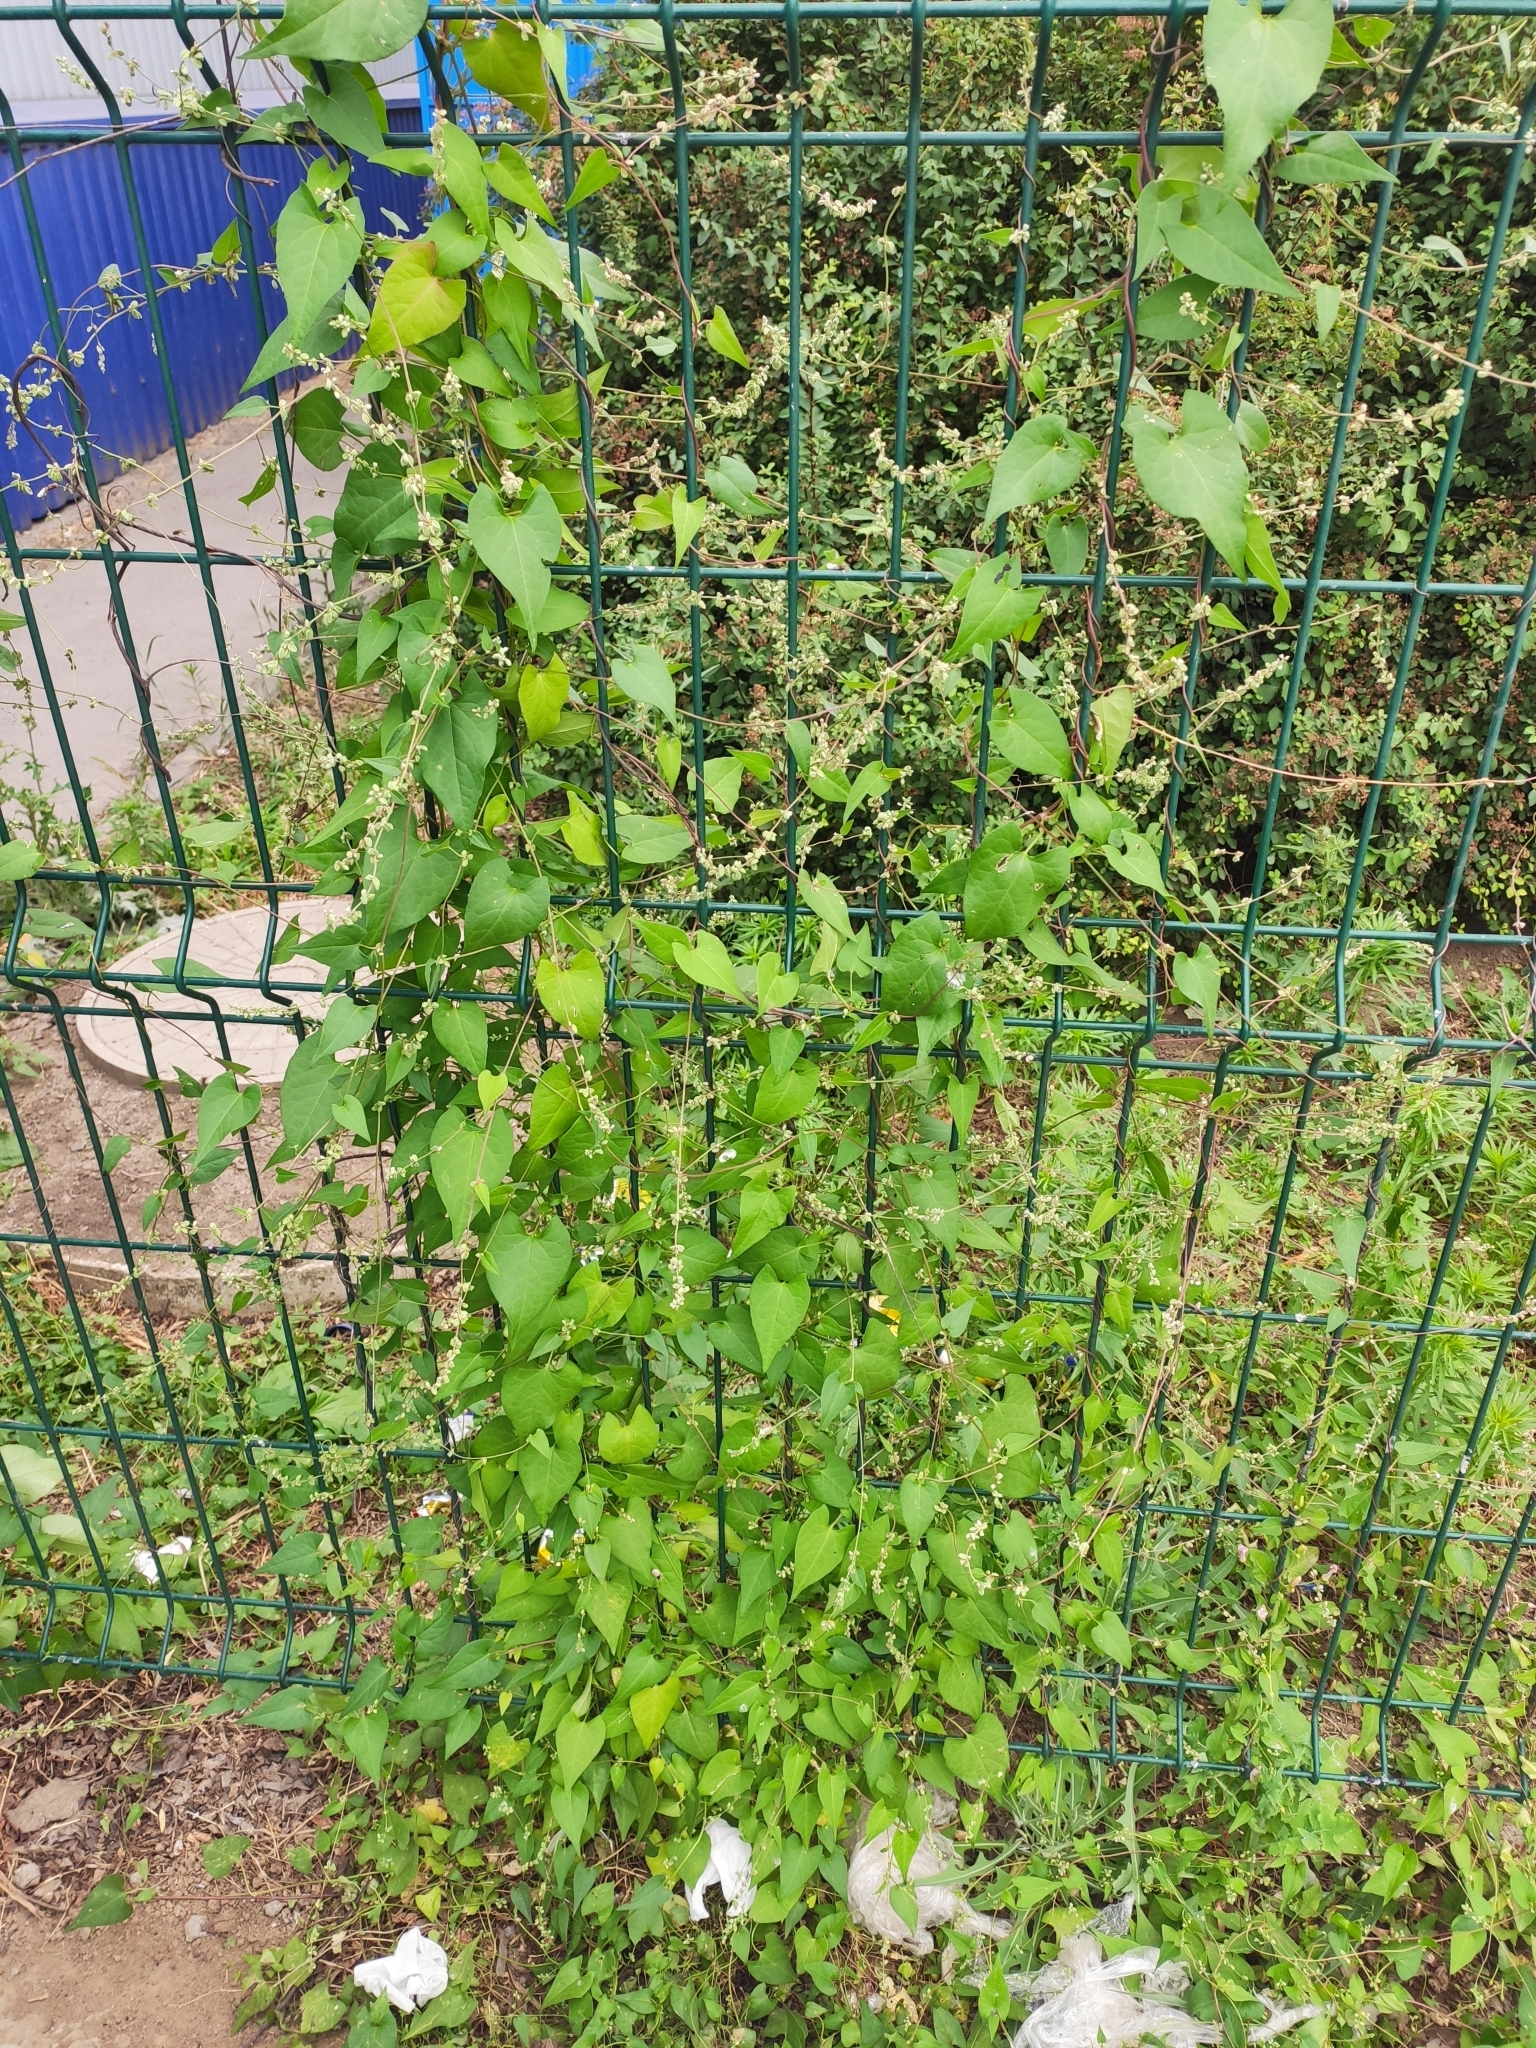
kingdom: Plantae
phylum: Tracheophyta
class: Magnoliopsida
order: Caryophyllales
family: Polygonaceae
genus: Fallopia
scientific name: Fallopia convolvulus
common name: Black bindweed
